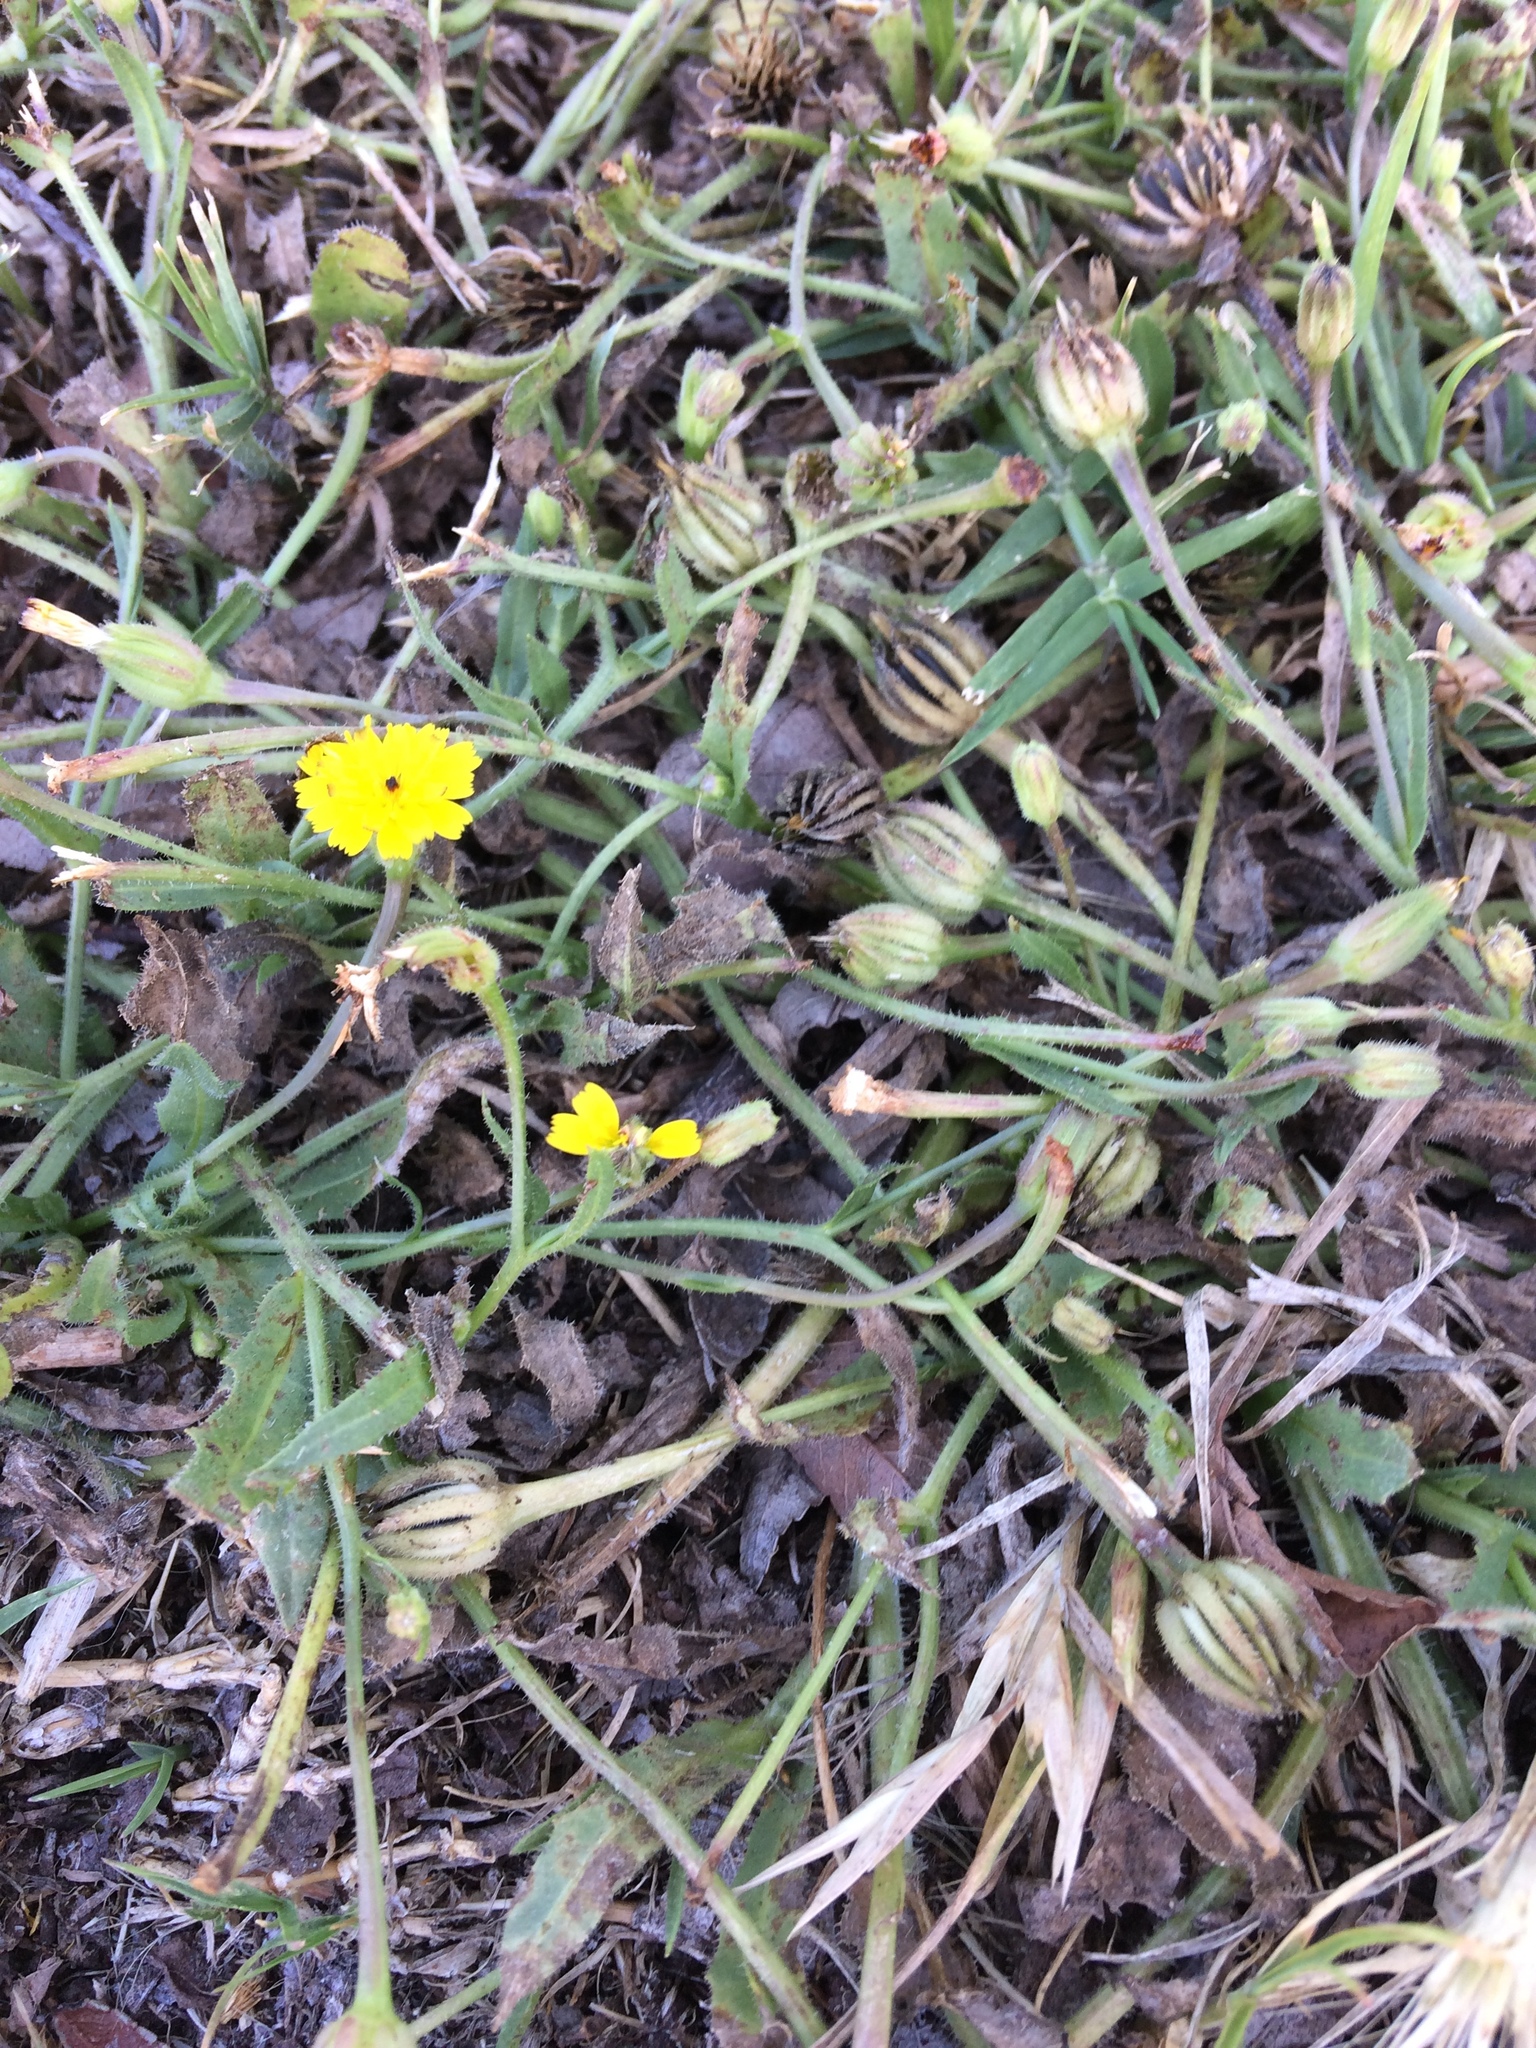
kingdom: Plantae
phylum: Tracheophyta
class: Magnoliopsida
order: Asterales
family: Asteraceae
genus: Hedypnois
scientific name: Hedypnois rhagadioloides
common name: Cretan weed
